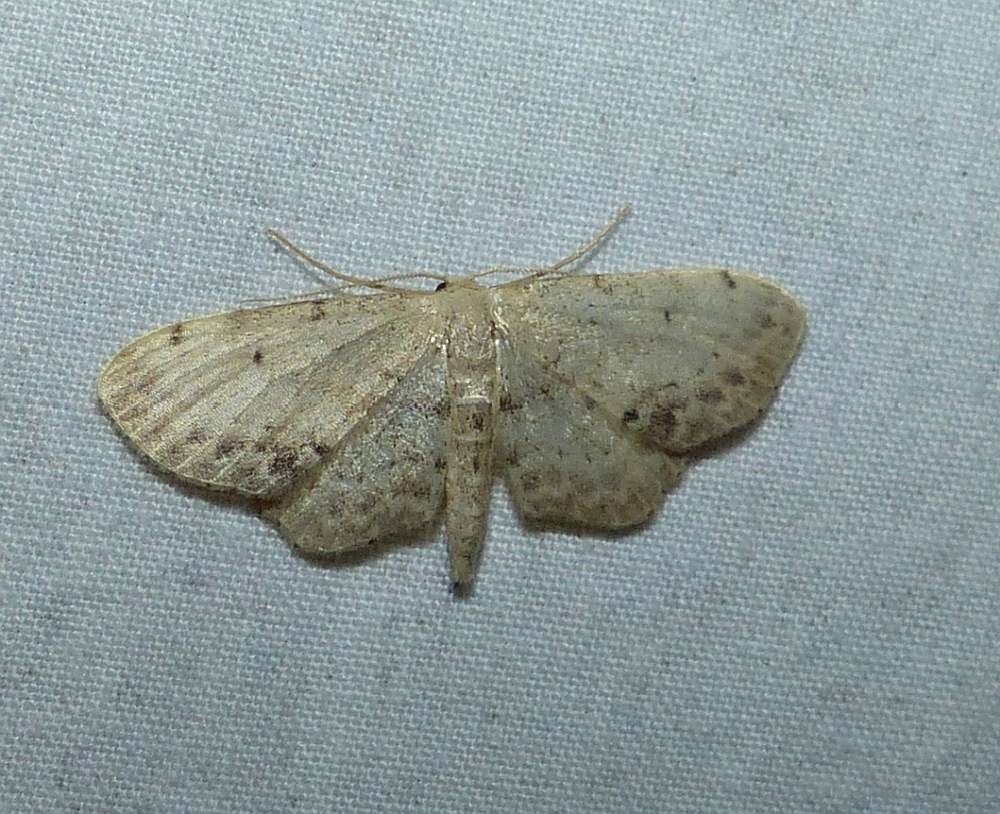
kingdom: Animalia
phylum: Arthropoda
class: Insecta
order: Lepidoptera
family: Geometridae
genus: Idaea
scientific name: Idaea dimidiata
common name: Single-dotted wave
